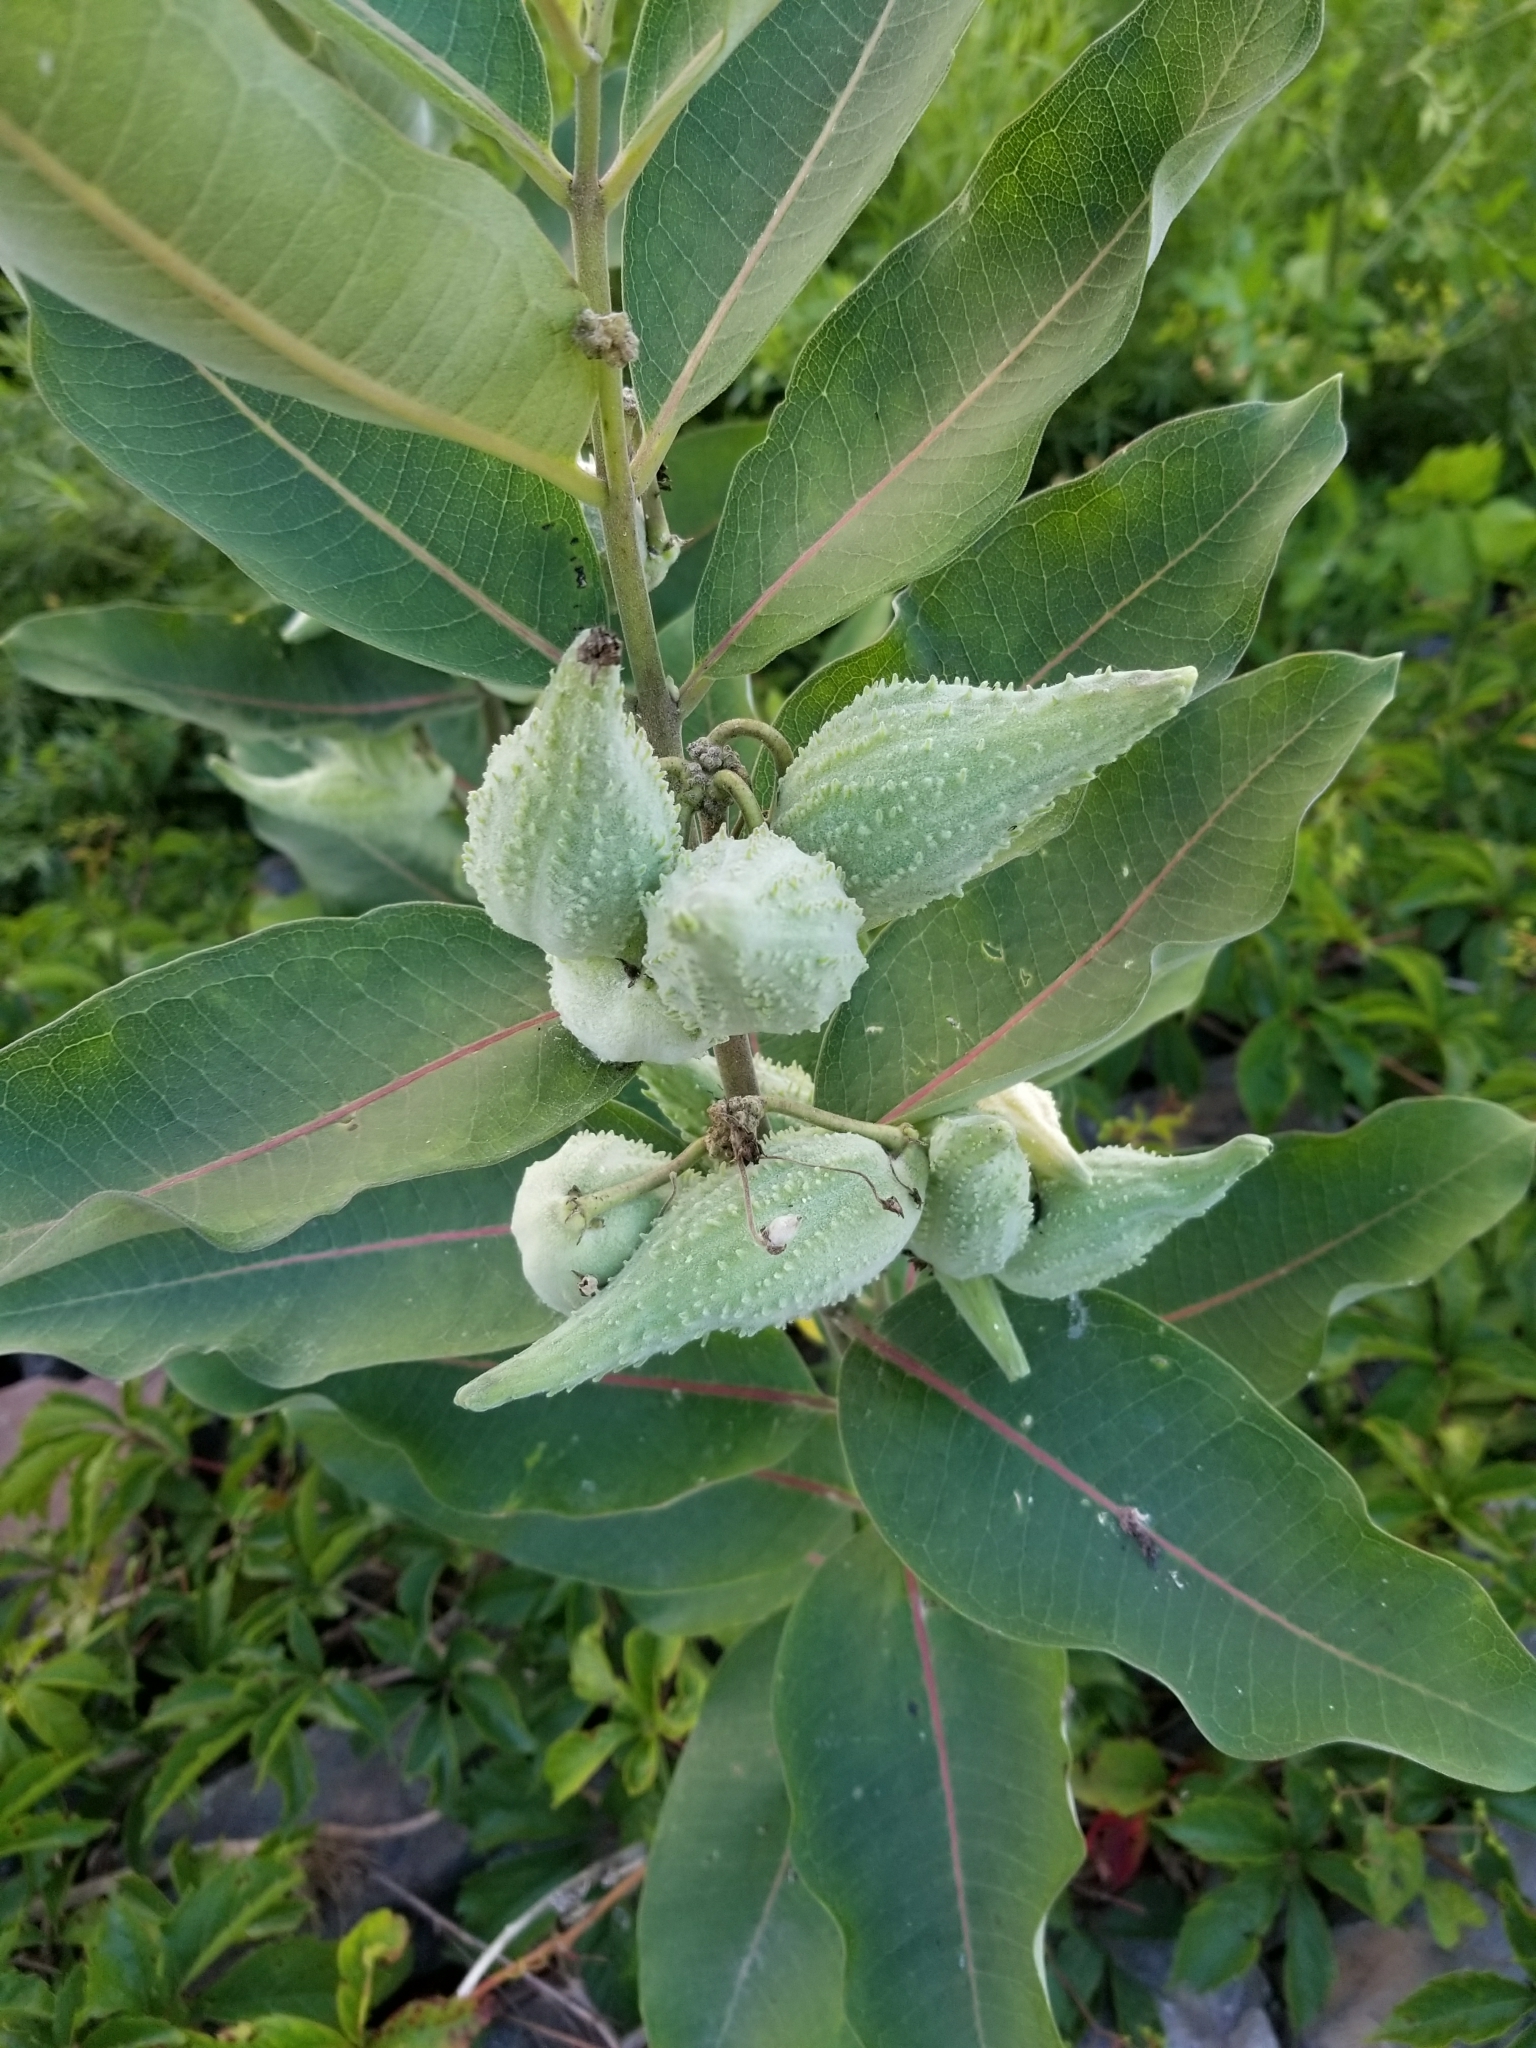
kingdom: Plantae
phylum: Tracheophyta
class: Magnoliopsida
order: Gentianales
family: Apocynaceae
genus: Asclepias
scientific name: Asclepias syriaca
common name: Common milkweed
